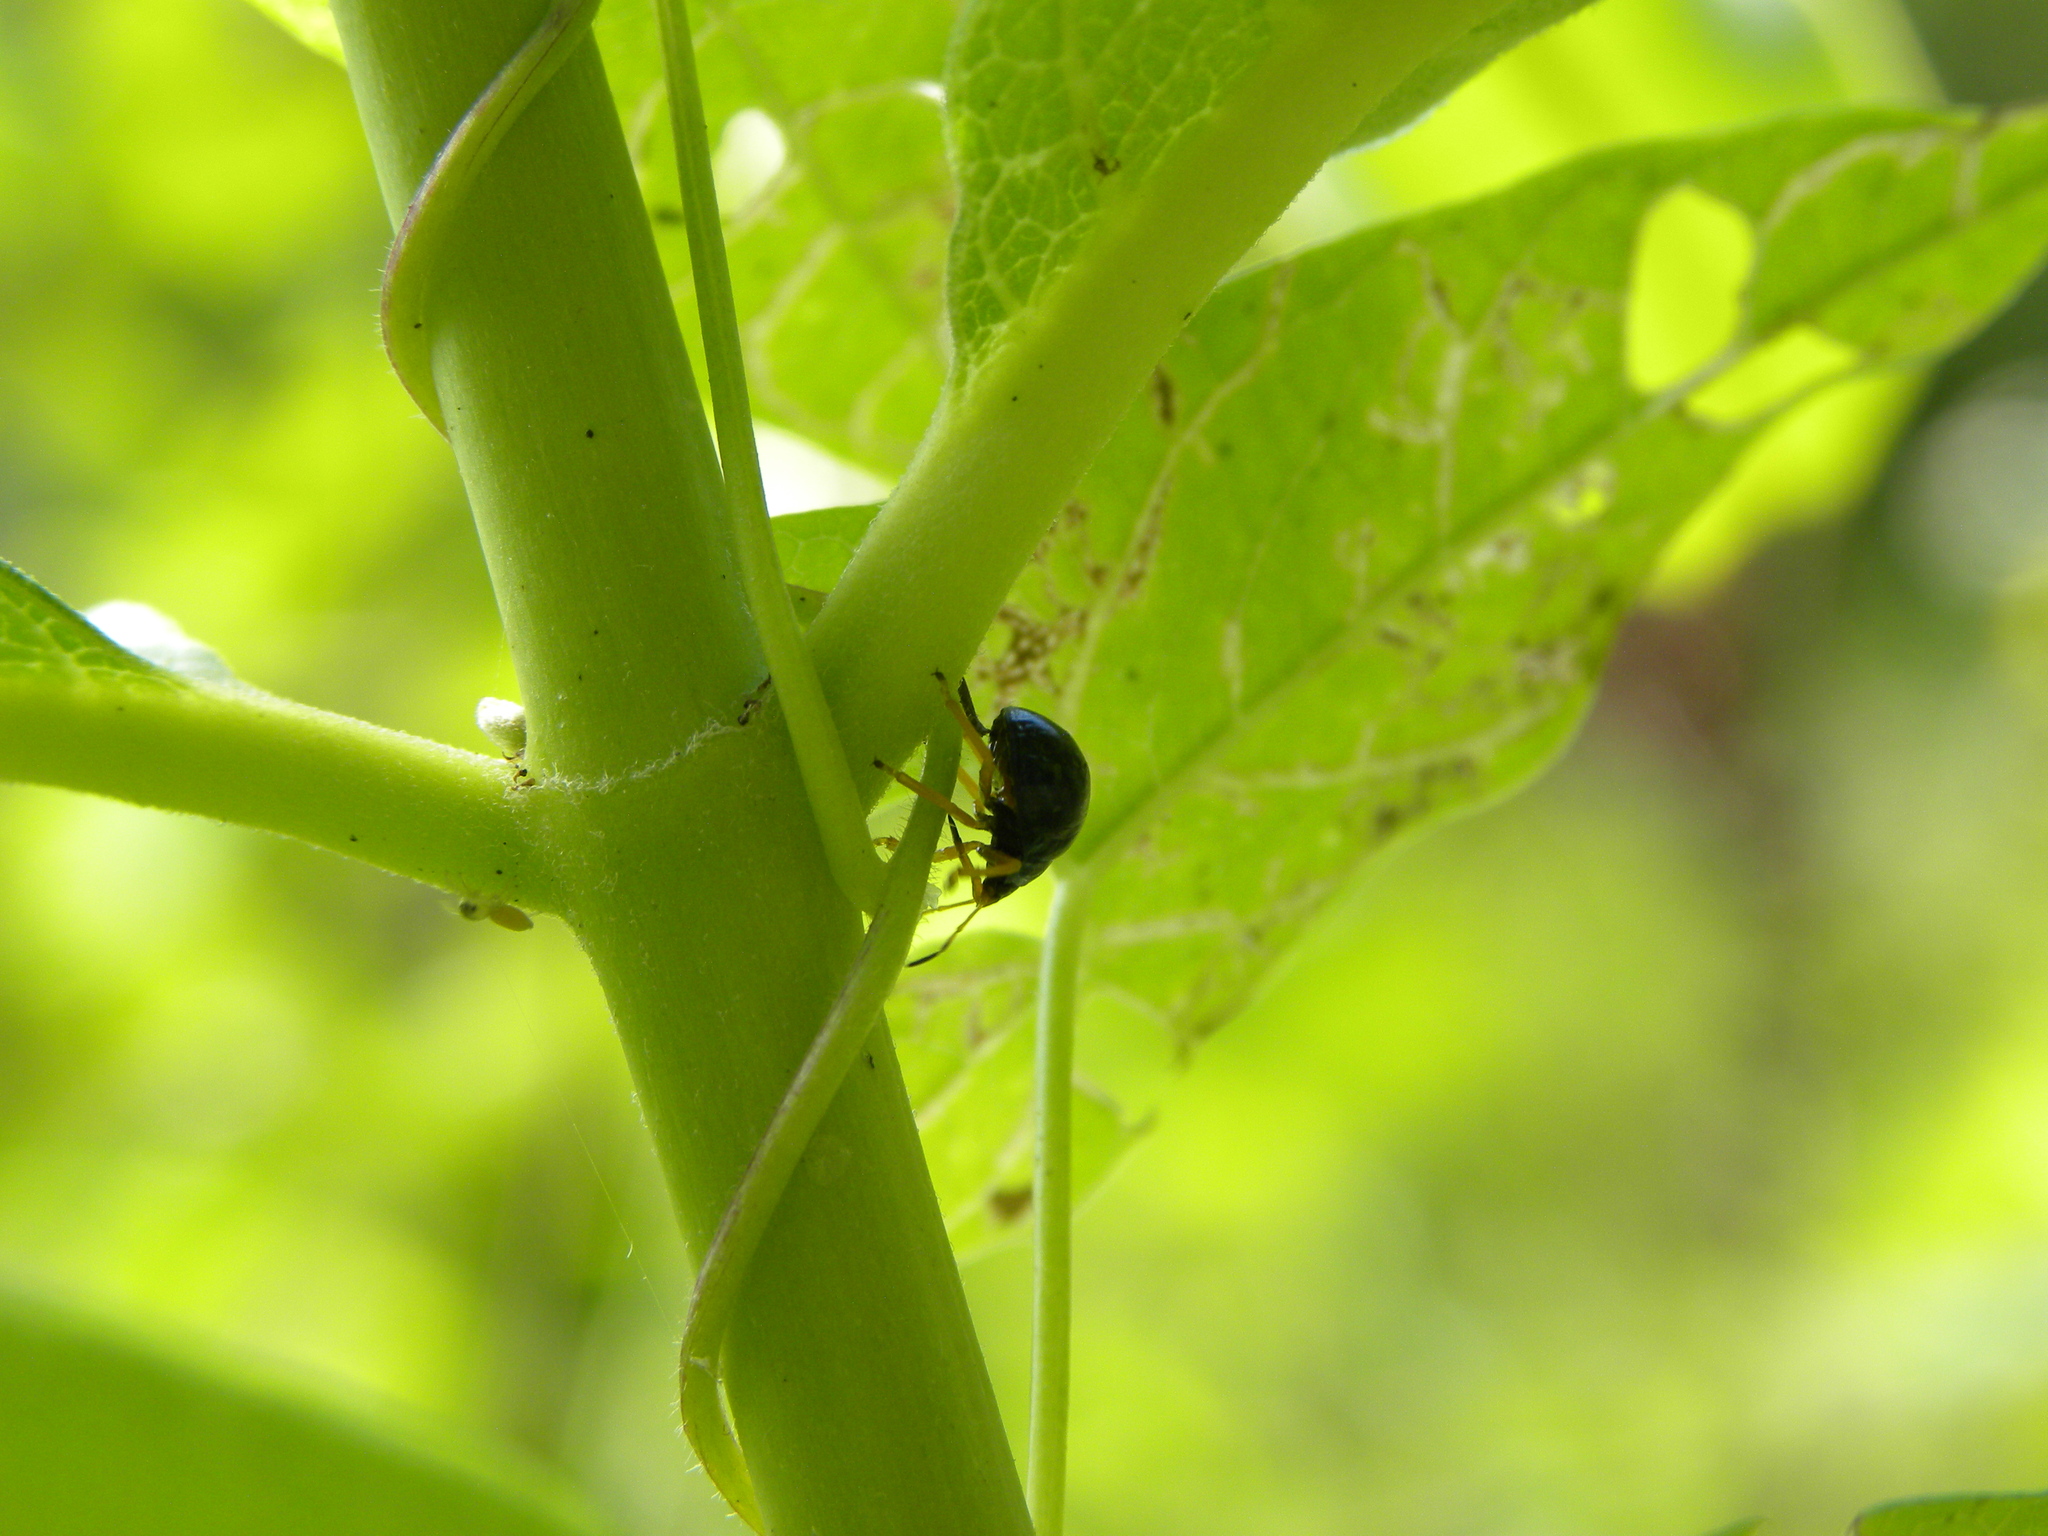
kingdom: Animalia
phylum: Arthropoda
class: Insecta
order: Hemiptera
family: Pentatomidae
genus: Stiretrus
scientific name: Stiretrus anchorago
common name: Anchor stink bug
